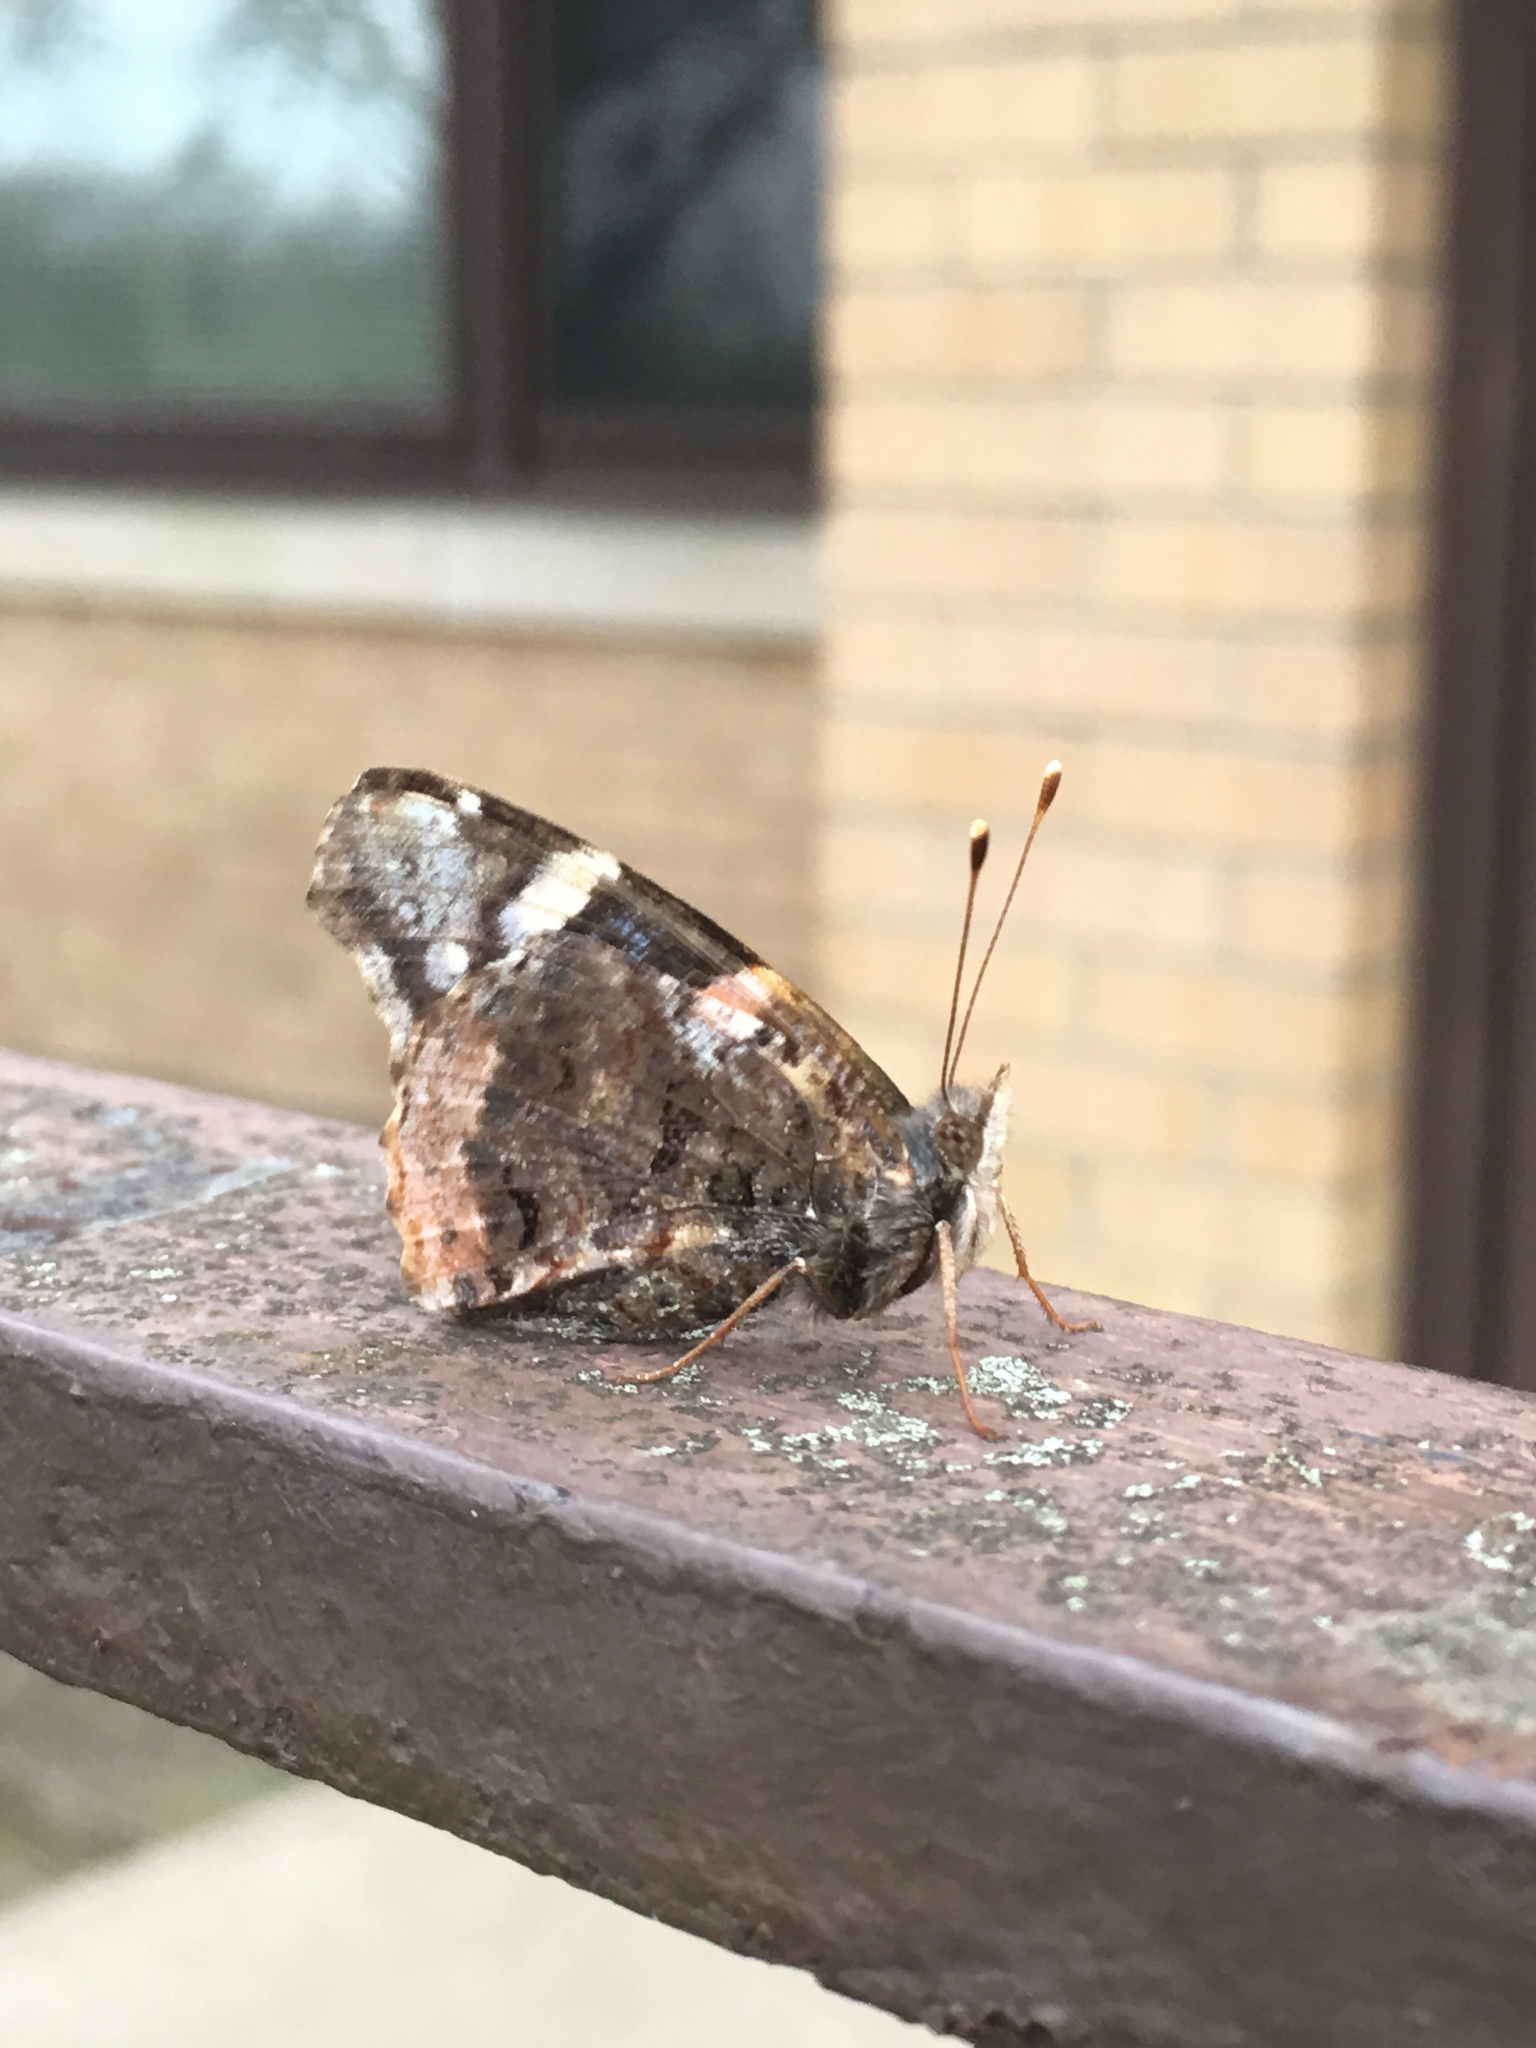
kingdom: Animalia
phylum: Arthropoda
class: Insecta
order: Lepidoptera
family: Nymphalidae
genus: Vanessa
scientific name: Vanessa atalanta
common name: Red admiral
